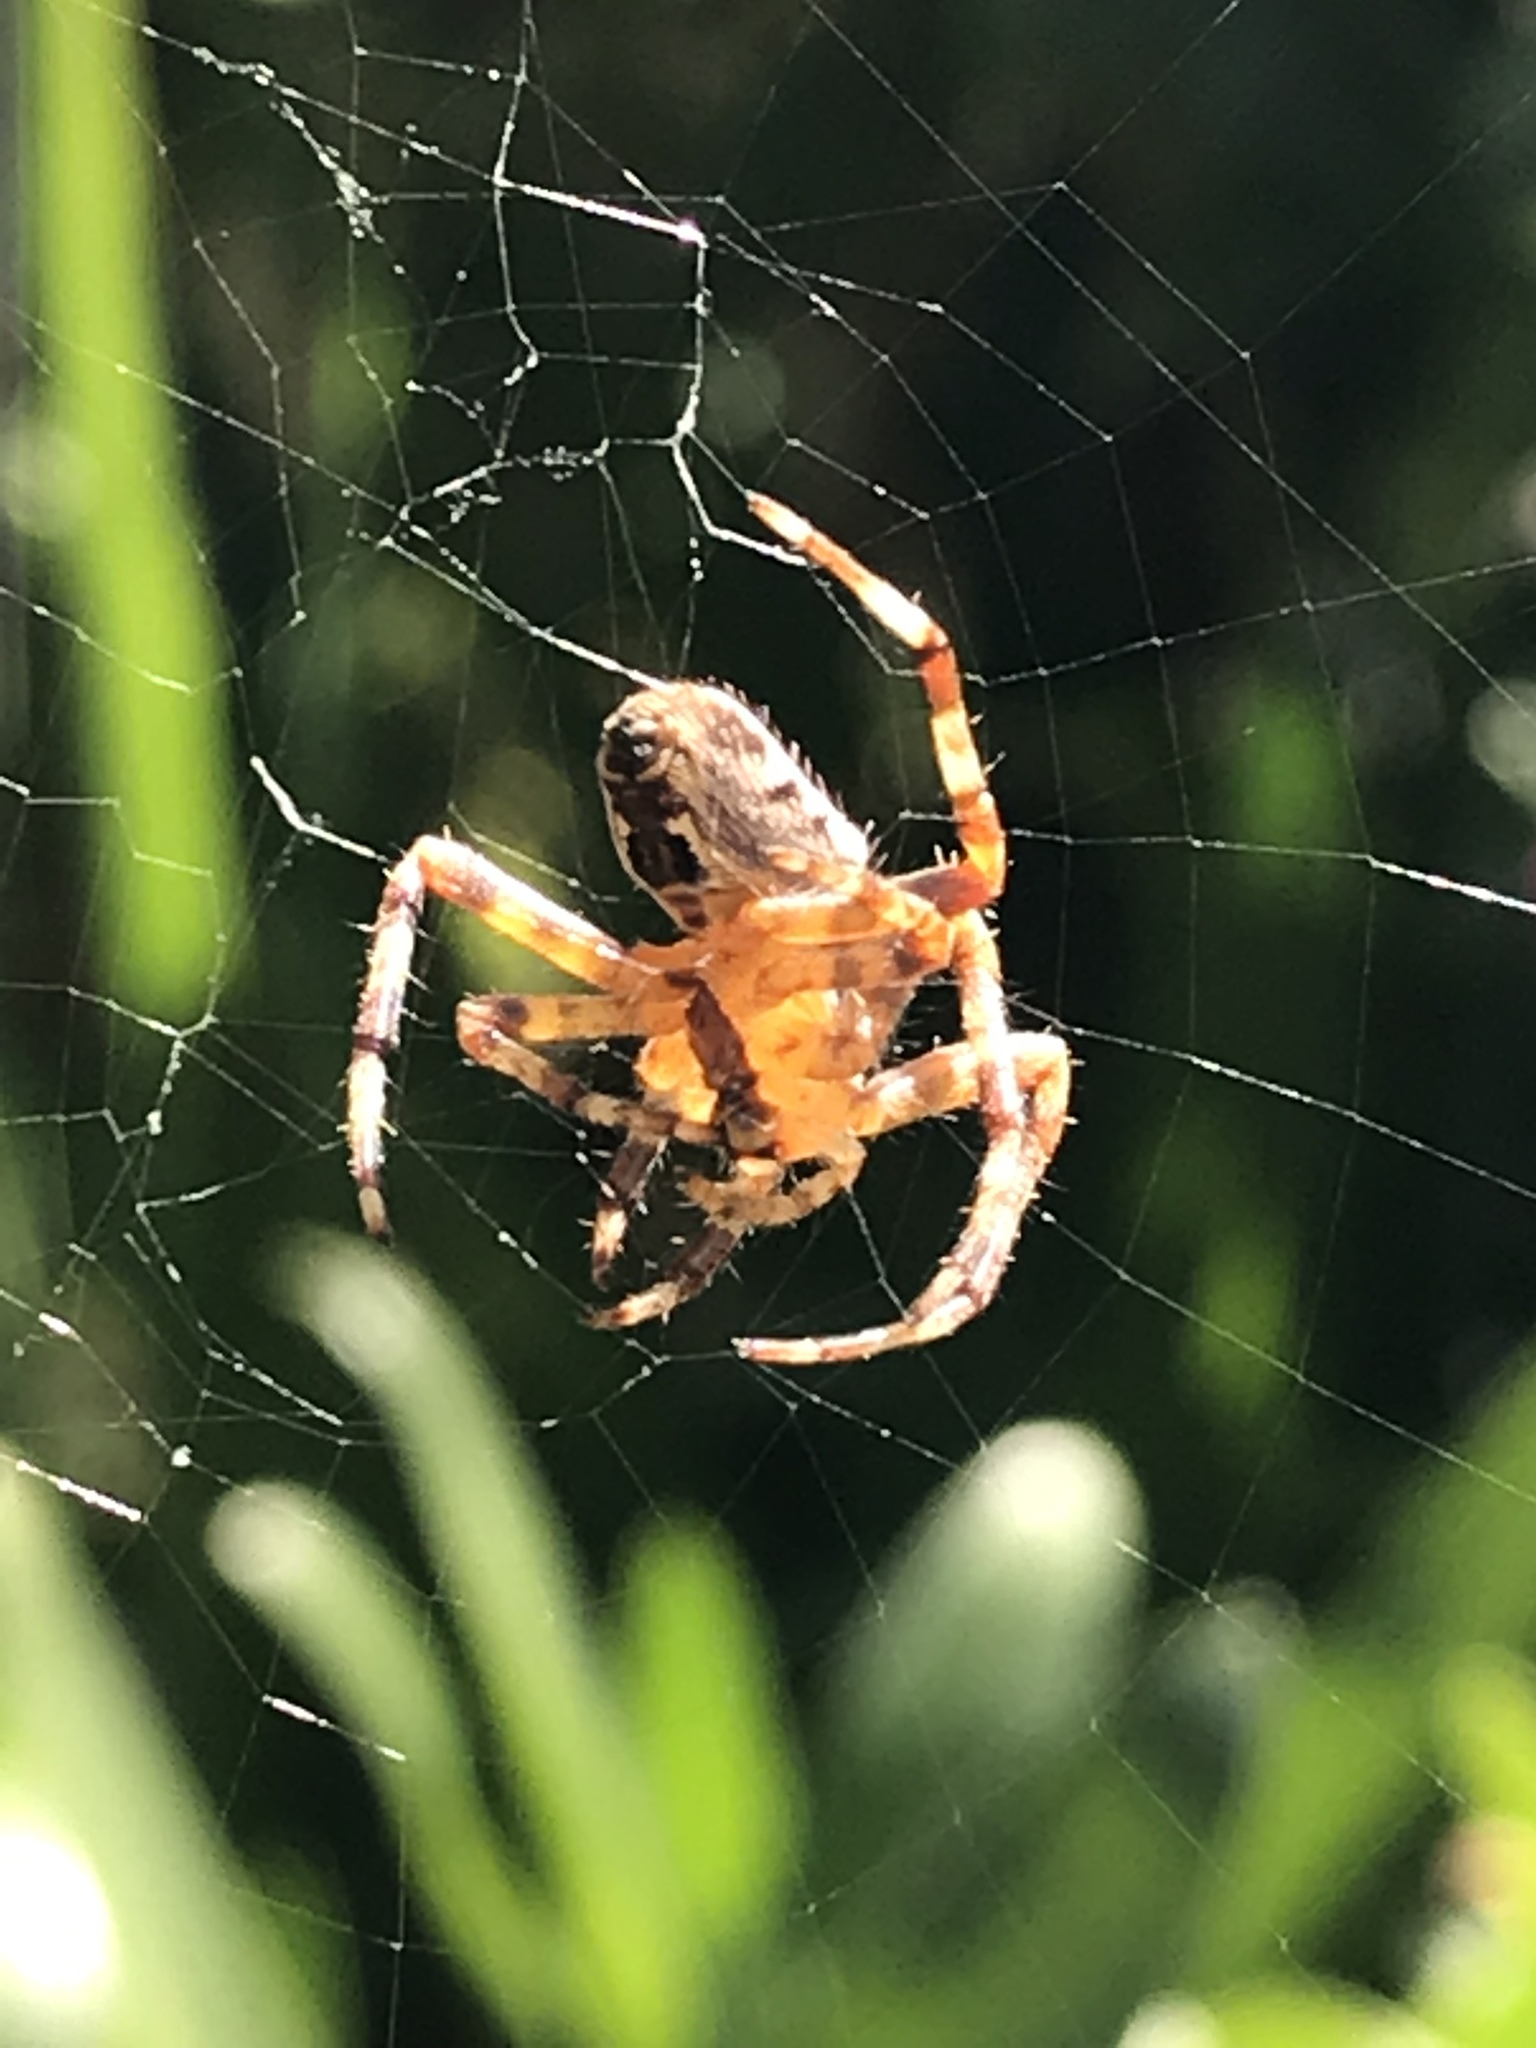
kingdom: Animalia
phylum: Arthropoda
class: Arachnida
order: Araneae
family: Araneidae
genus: Araneus
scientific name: Araneus diadematus
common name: Cross orbweaver
